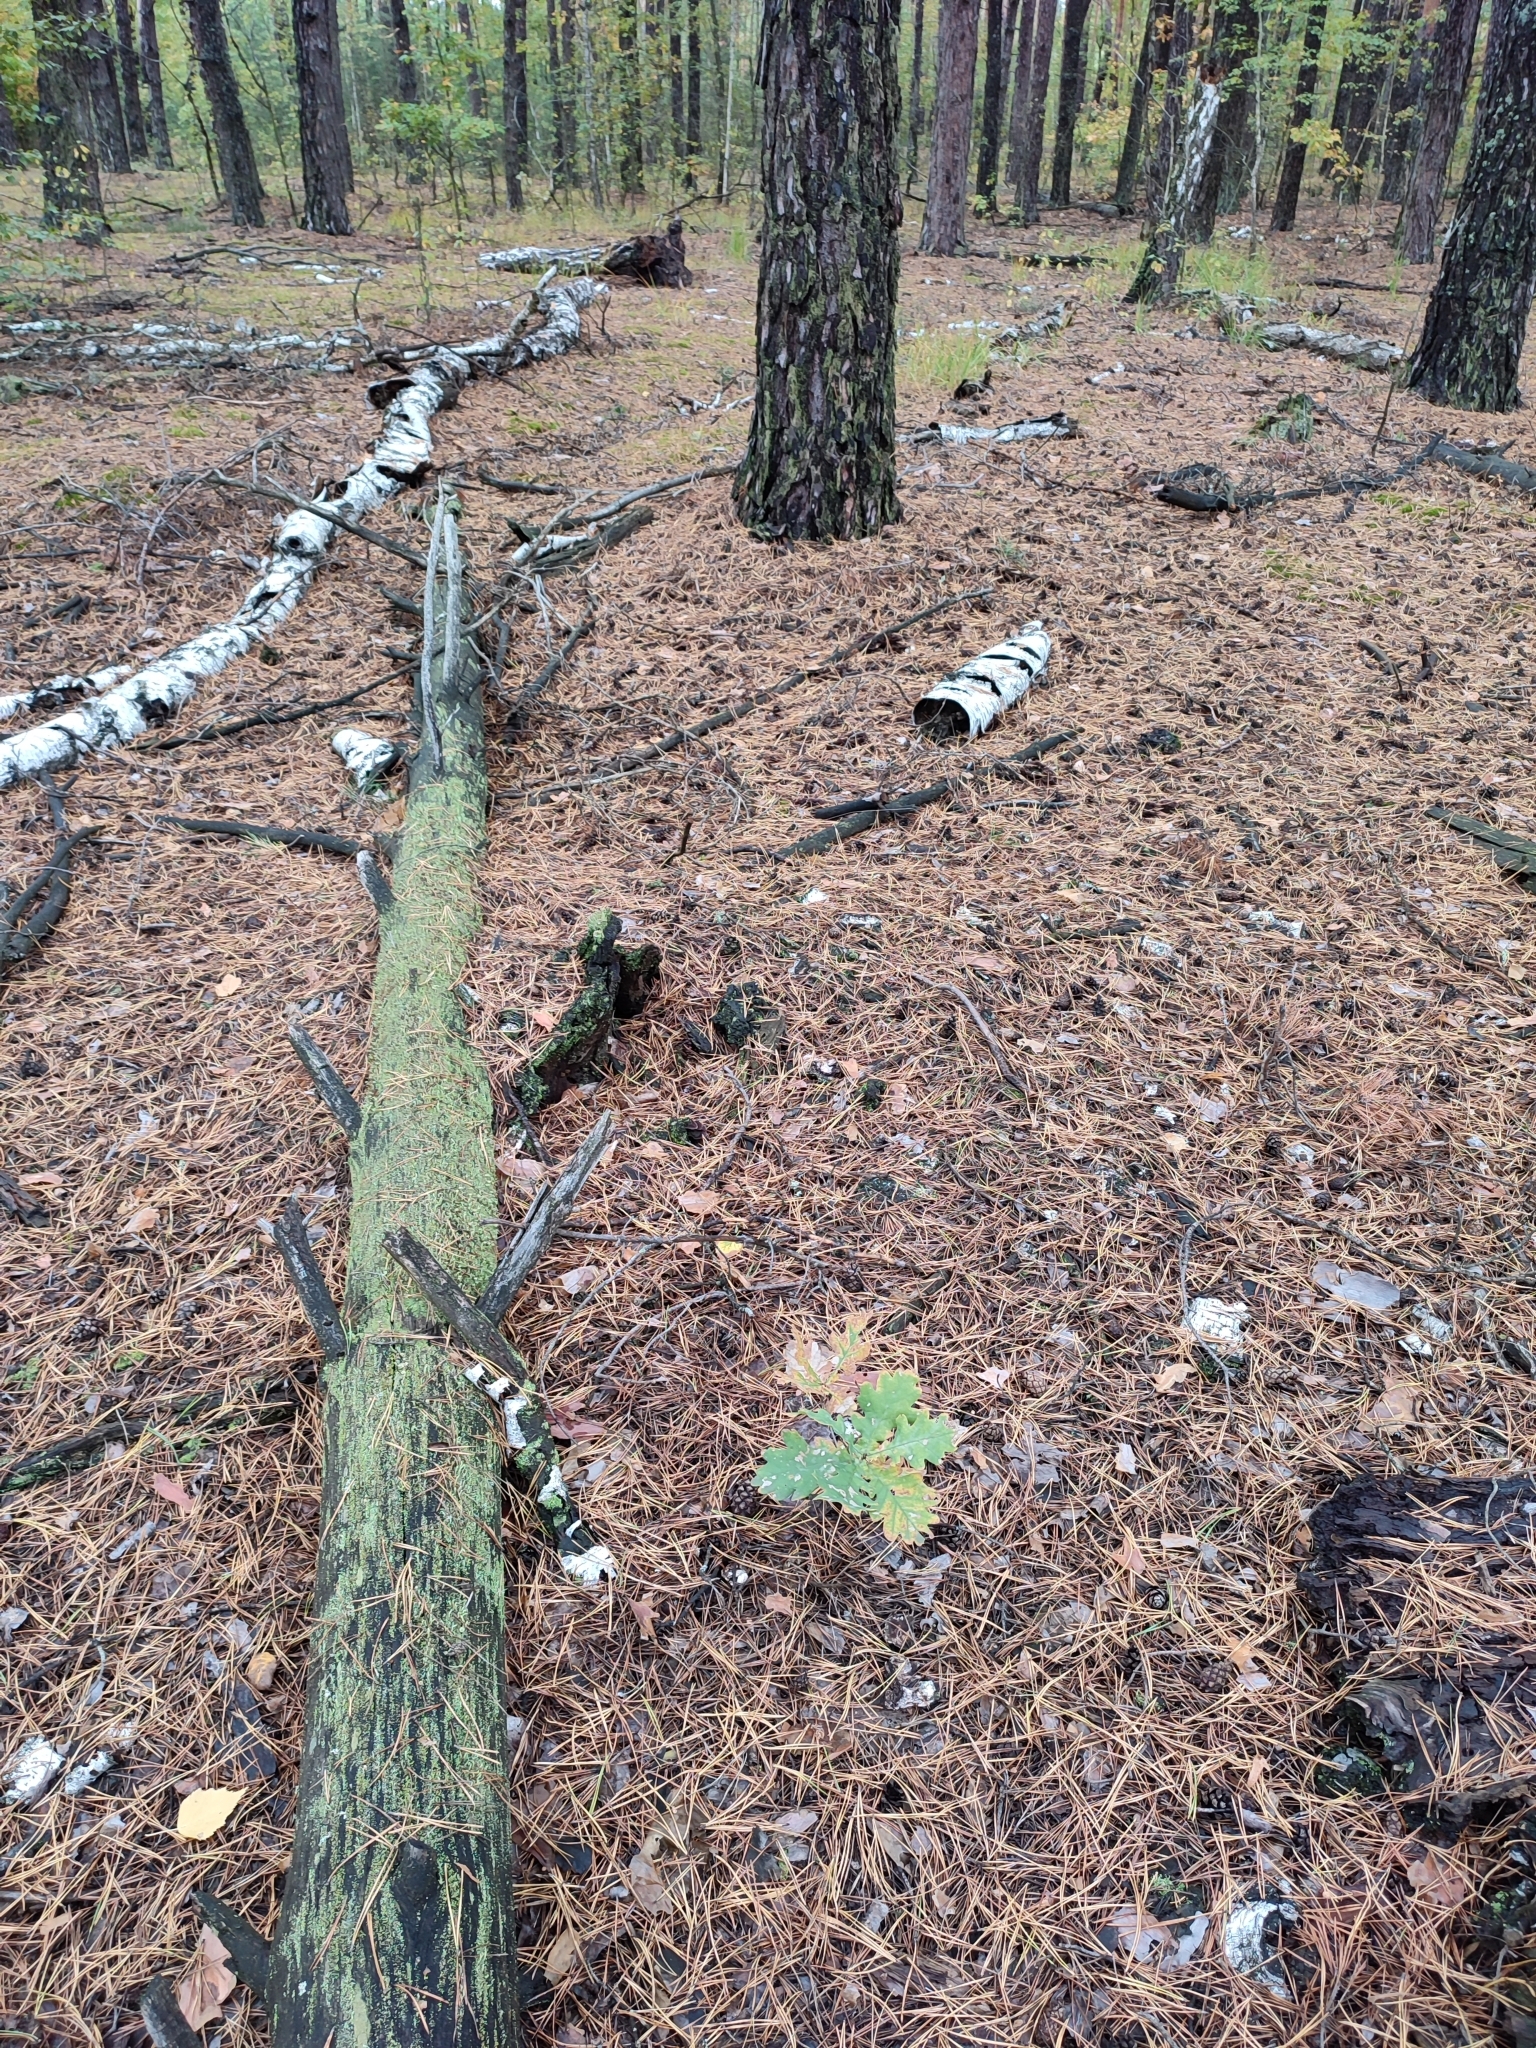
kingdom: Plantae
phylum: Tracheophyta
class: Magnoliopsida
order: Fagales
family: Fagaceae
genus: Quercus
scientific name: Quercus robur
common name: Pedunculate oak
